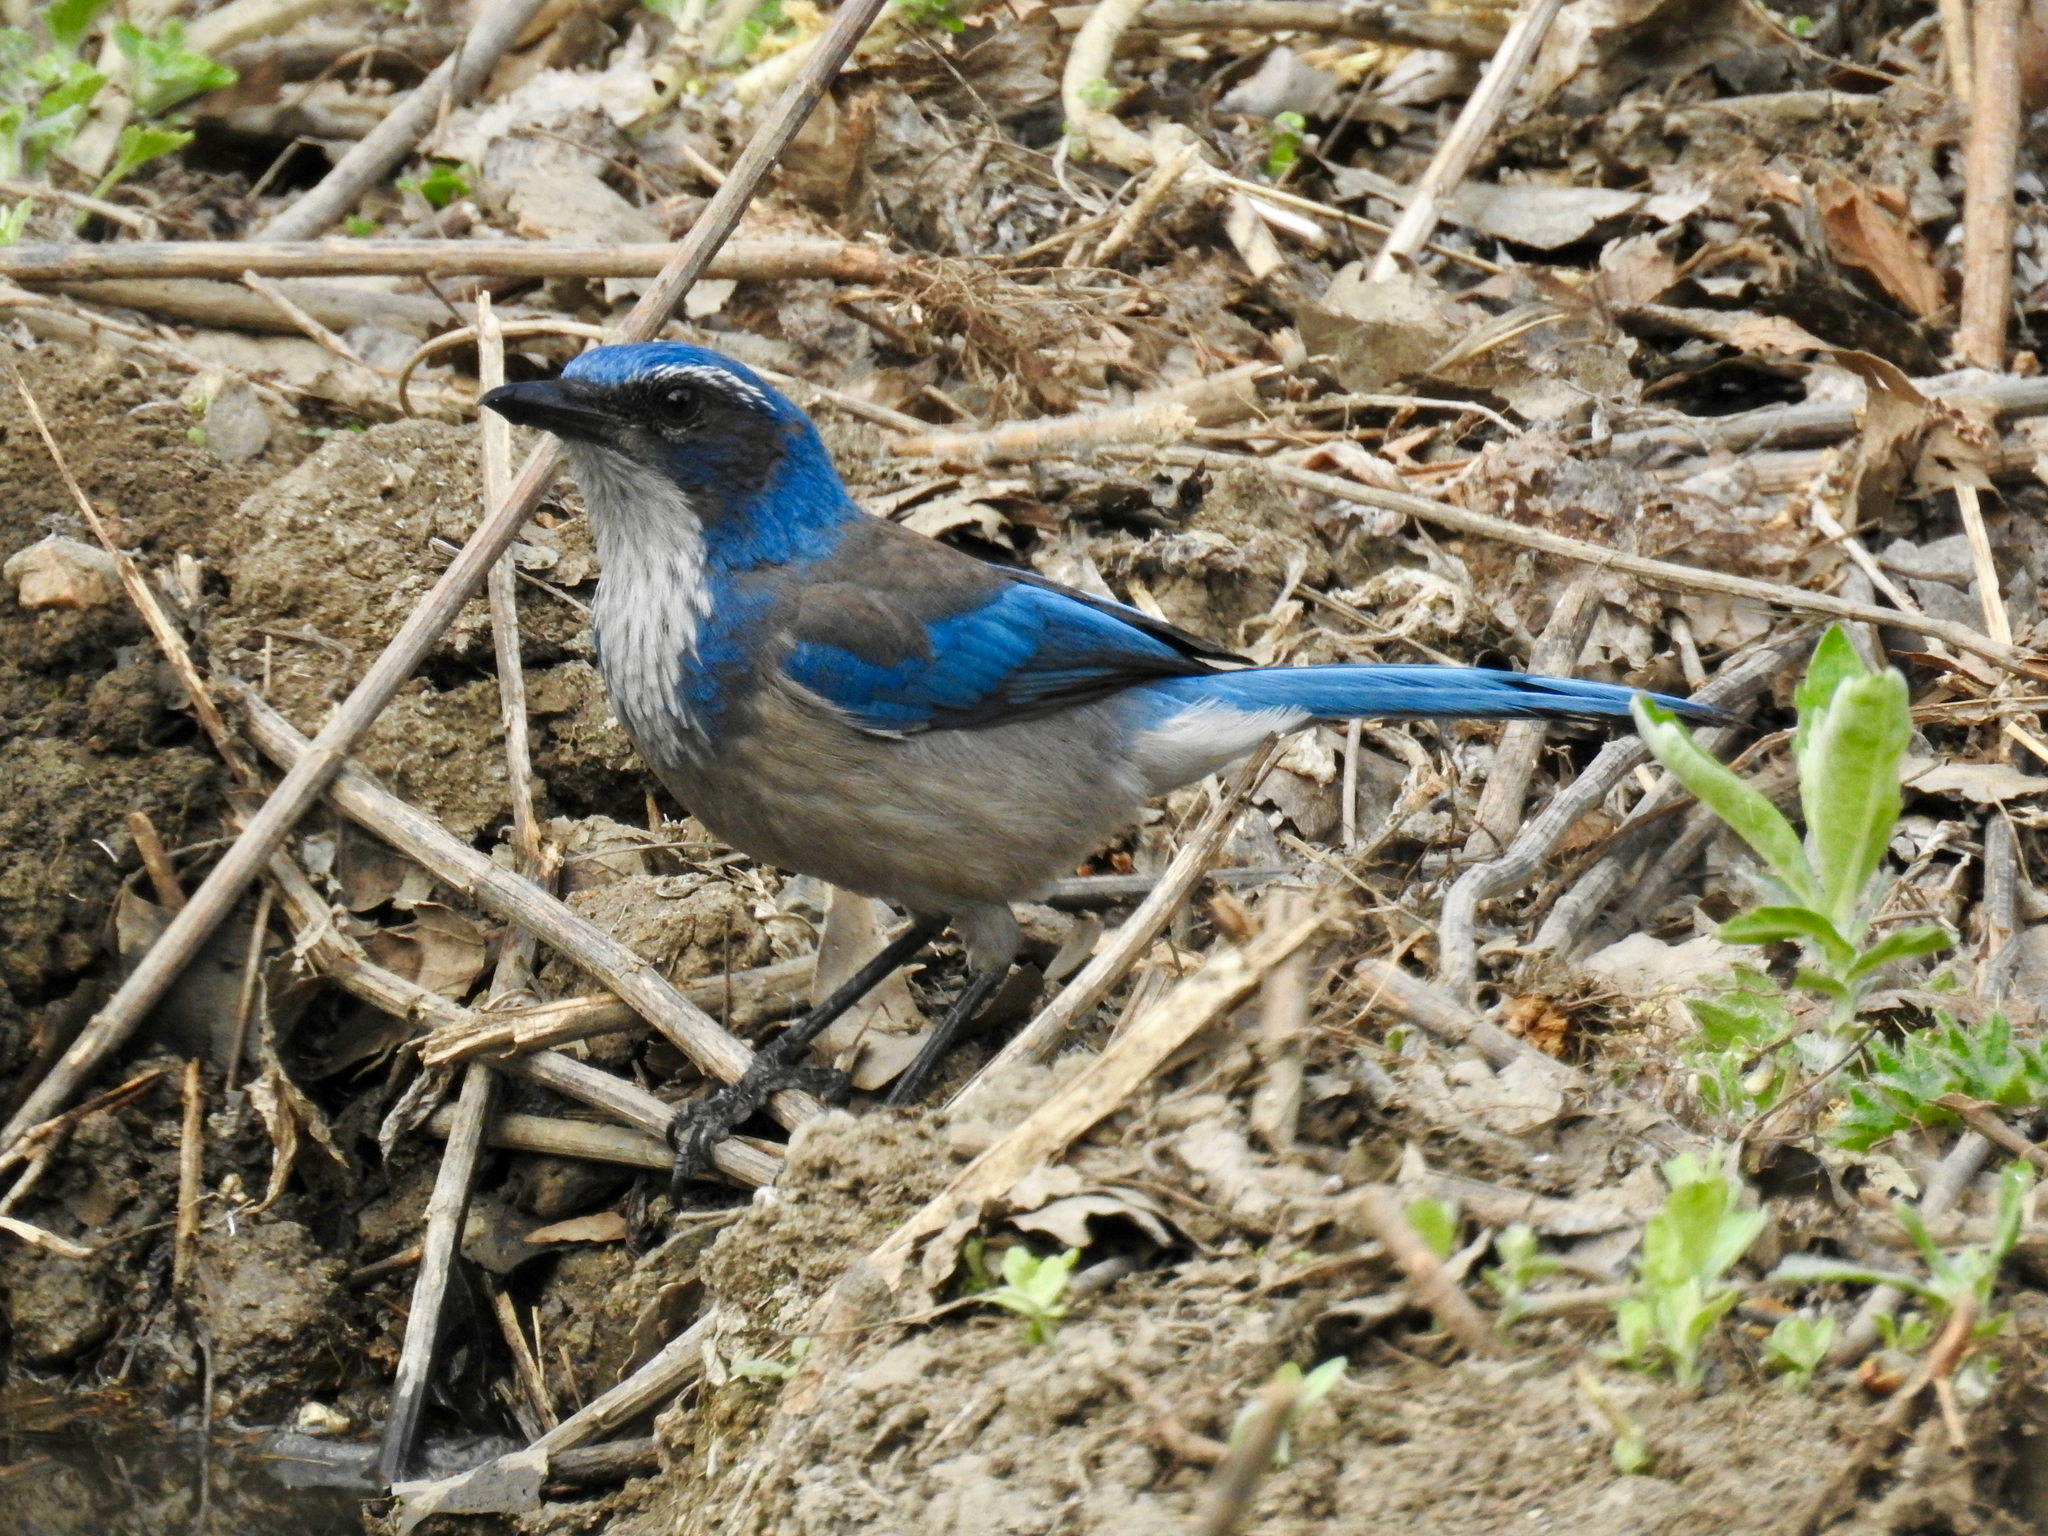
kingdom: Animalia
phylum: Chordata
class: Aves
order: Passeriformes
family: Corvidae
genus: Aphelocoma
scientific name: Aphelocoma californica
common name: California scrub-jay
